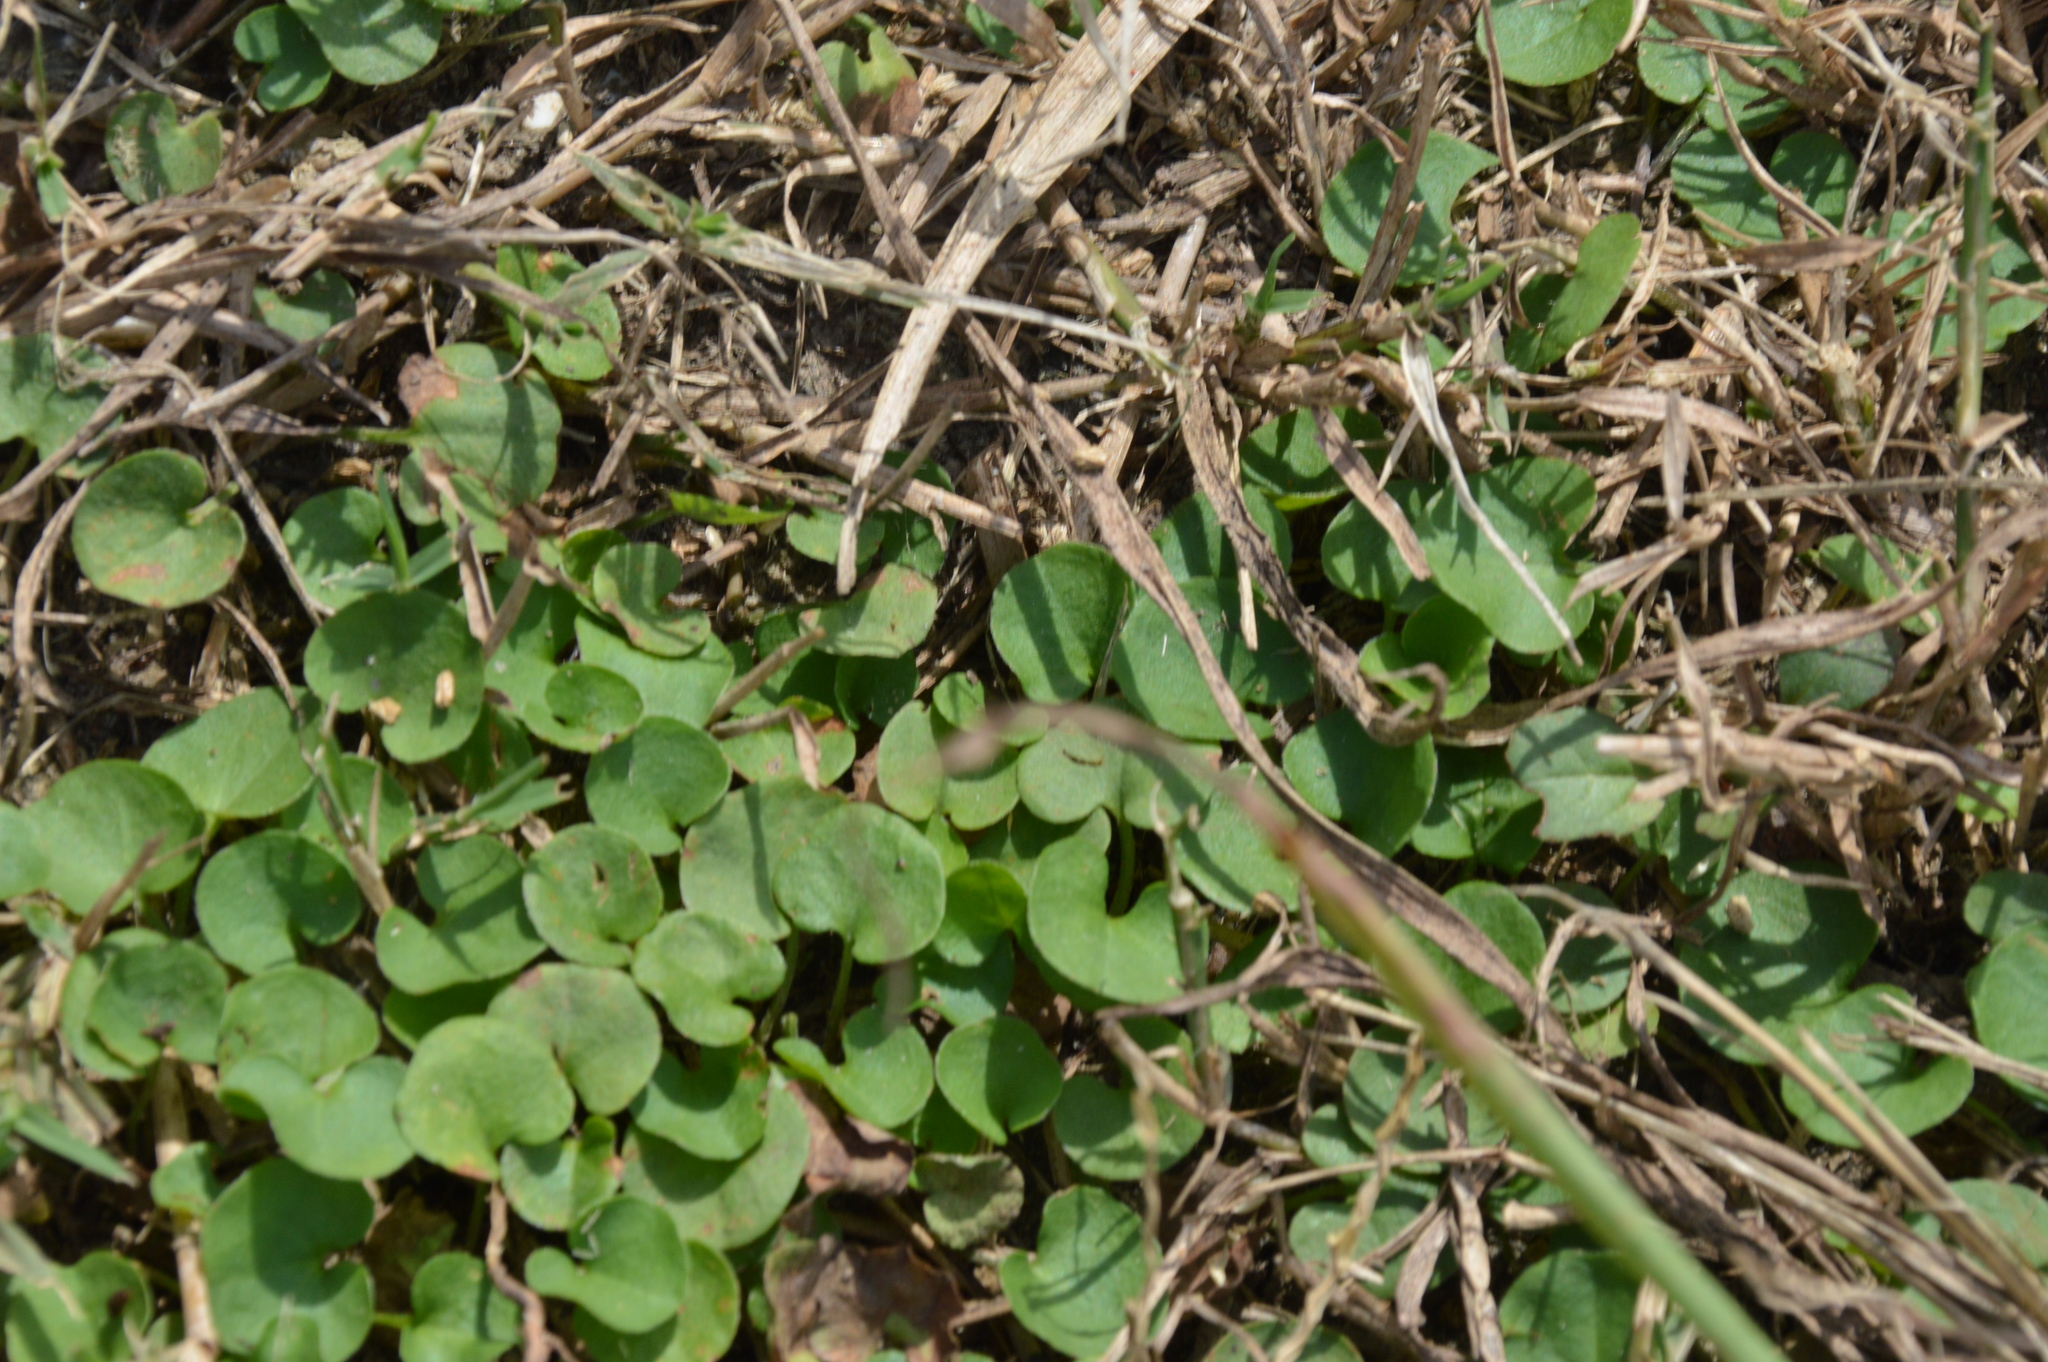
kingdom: Plantae
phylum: Tracheophyta
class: Magnoliopsida
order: Solanales
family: Convolvulaceae
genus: Dichondra
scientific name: Dichondra carolinensis
